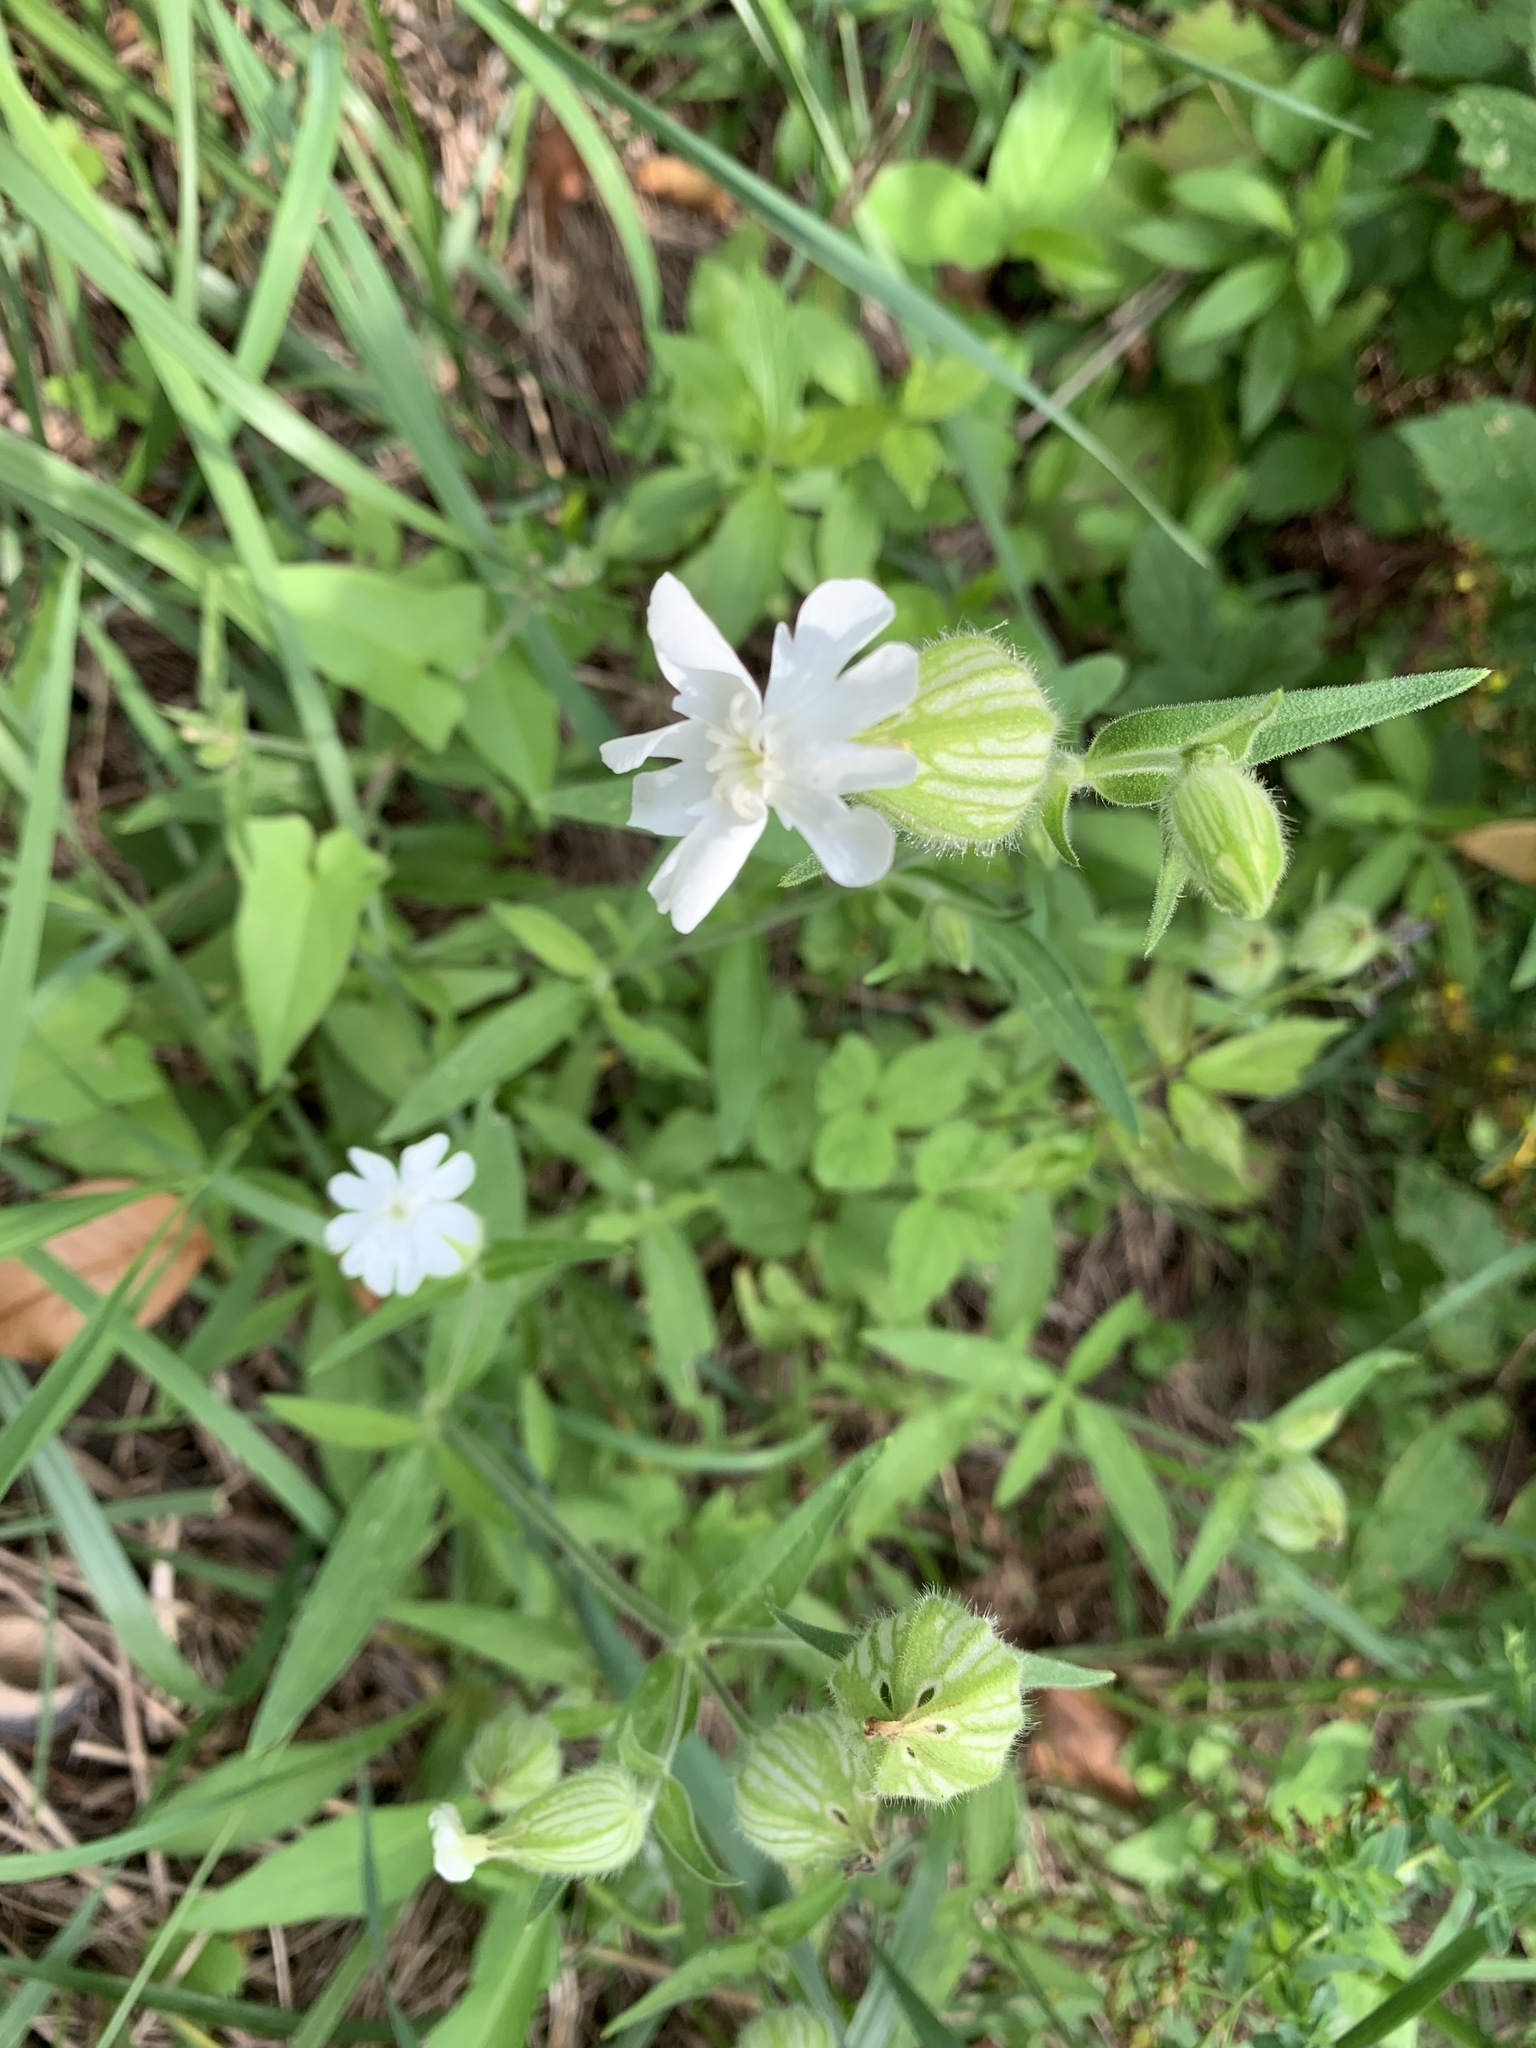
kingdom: Plantae
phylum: Tracheophyta
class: Magnoliopsida
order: Caryophyllales
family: Caryophyllaceae
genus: Silene
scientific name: Silene latifolia
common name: White campion
